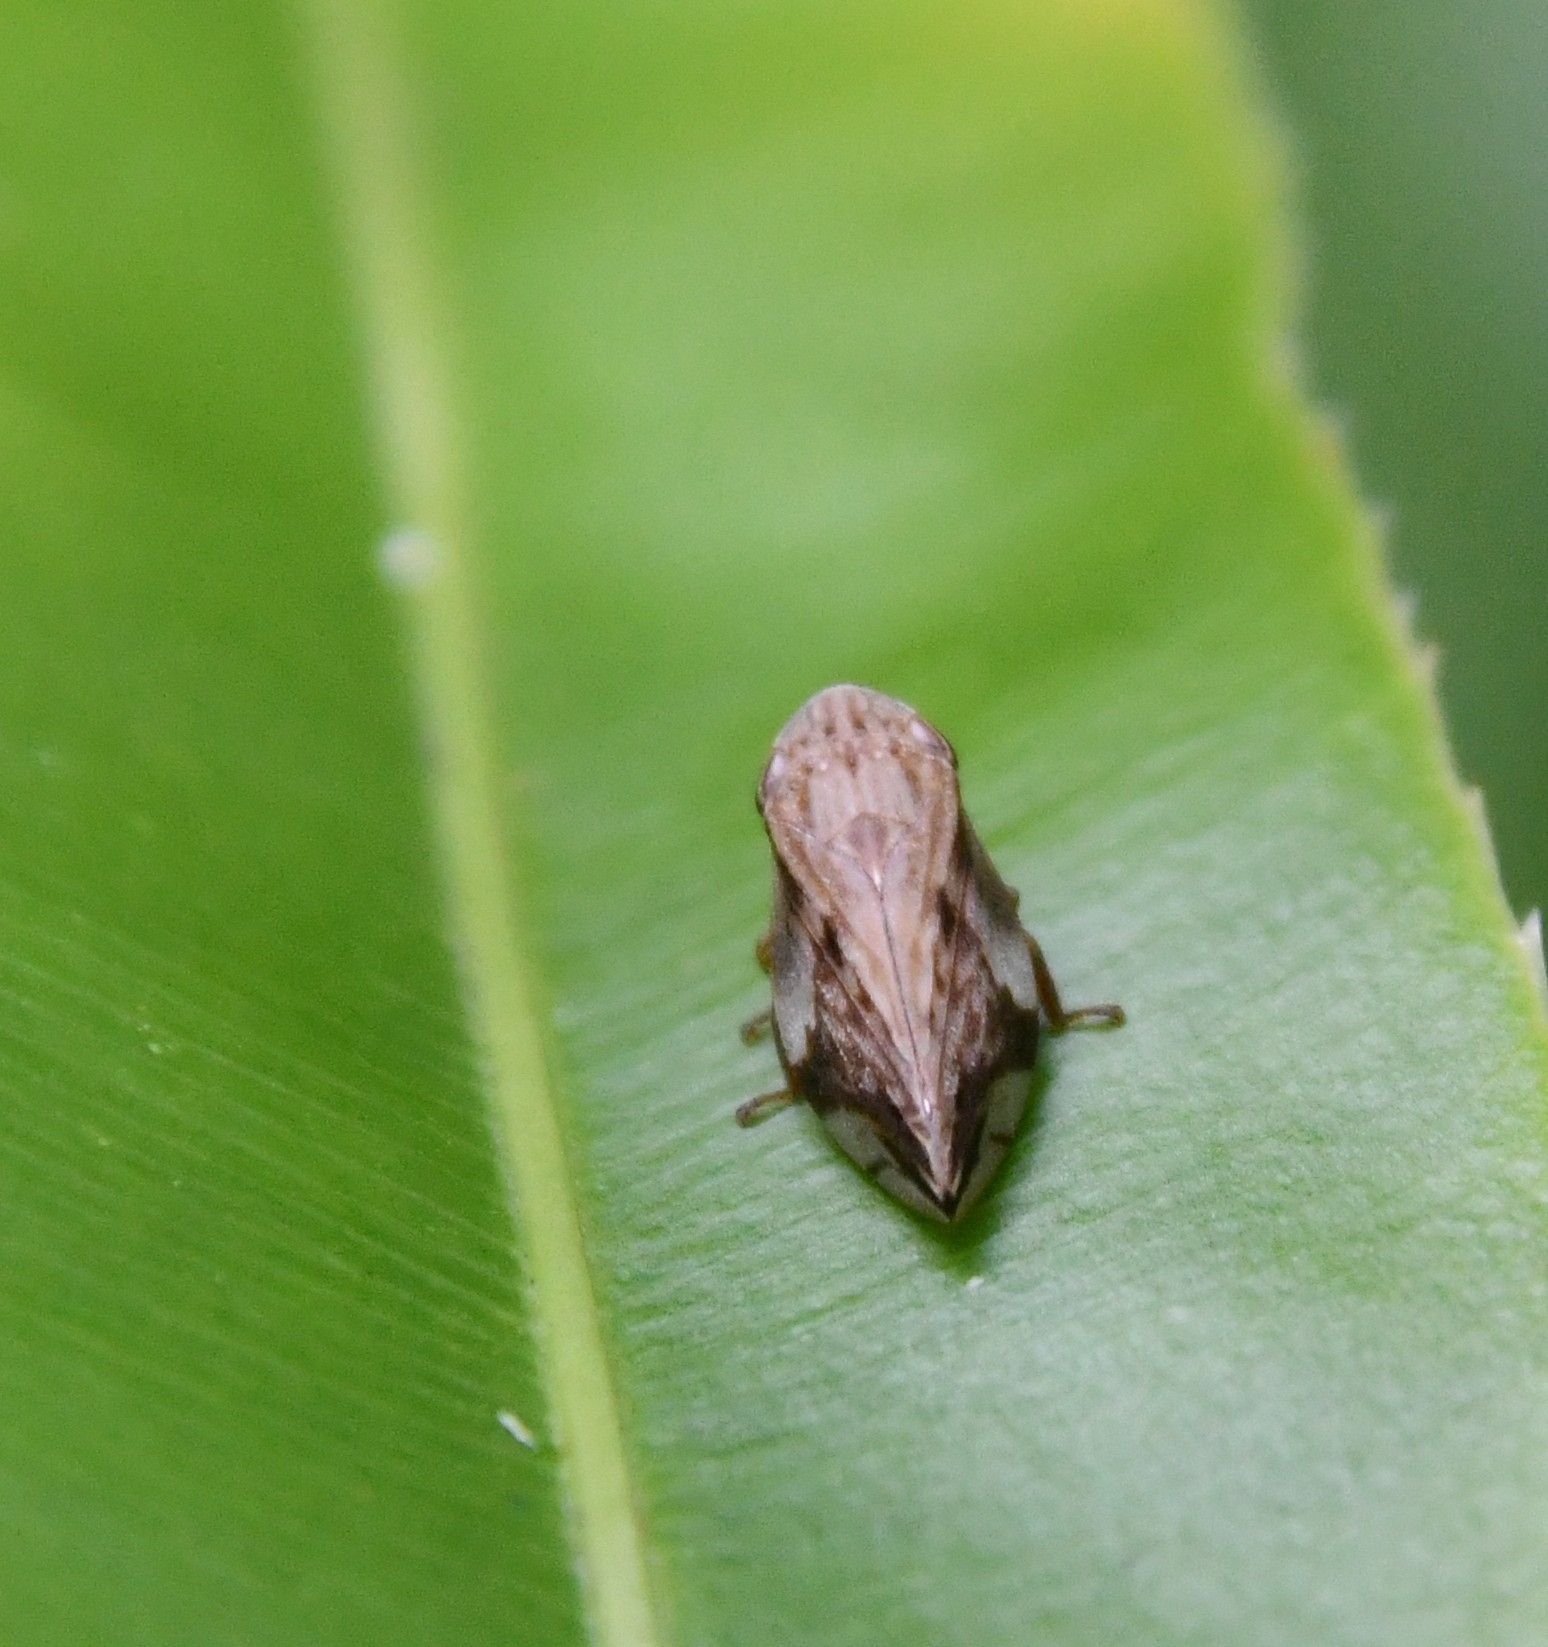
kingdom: Animalia
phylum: Arthropoda
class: Insecta
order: Hemiptera
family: Aphrophoridae
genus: Clovia
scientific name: Clovia conifera
